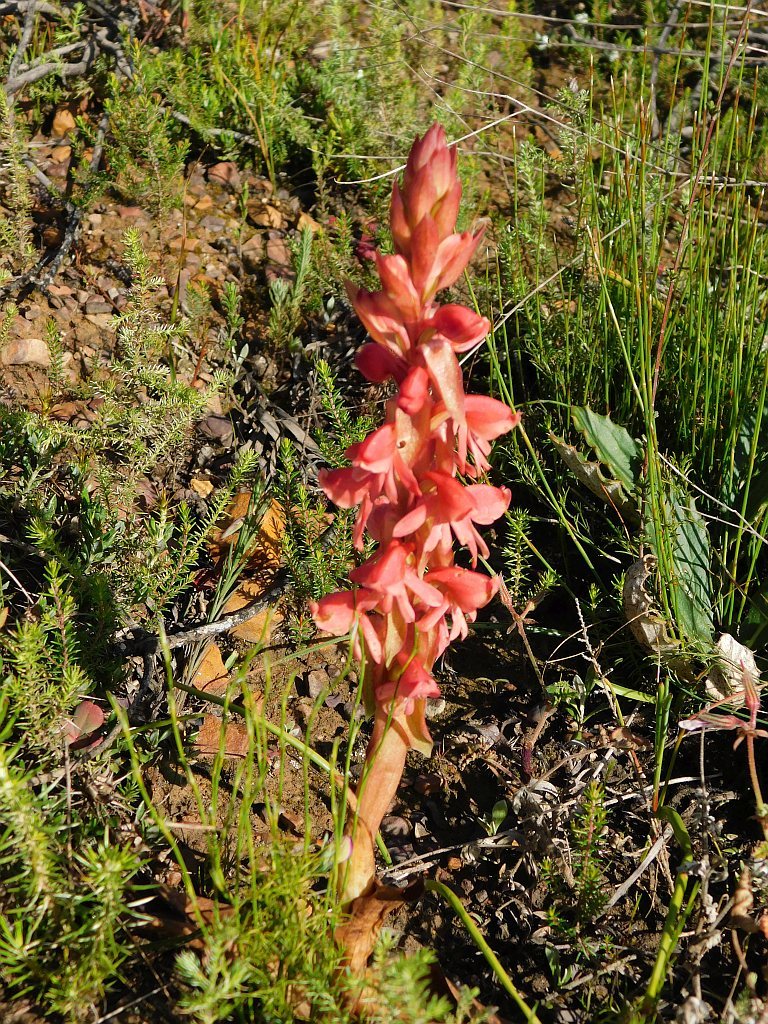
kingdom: Plantae
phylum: Tracheophyta
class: Liliopsida
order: Asparagales
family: Orchidaceae
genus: Satyrium
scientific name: Satyrium
